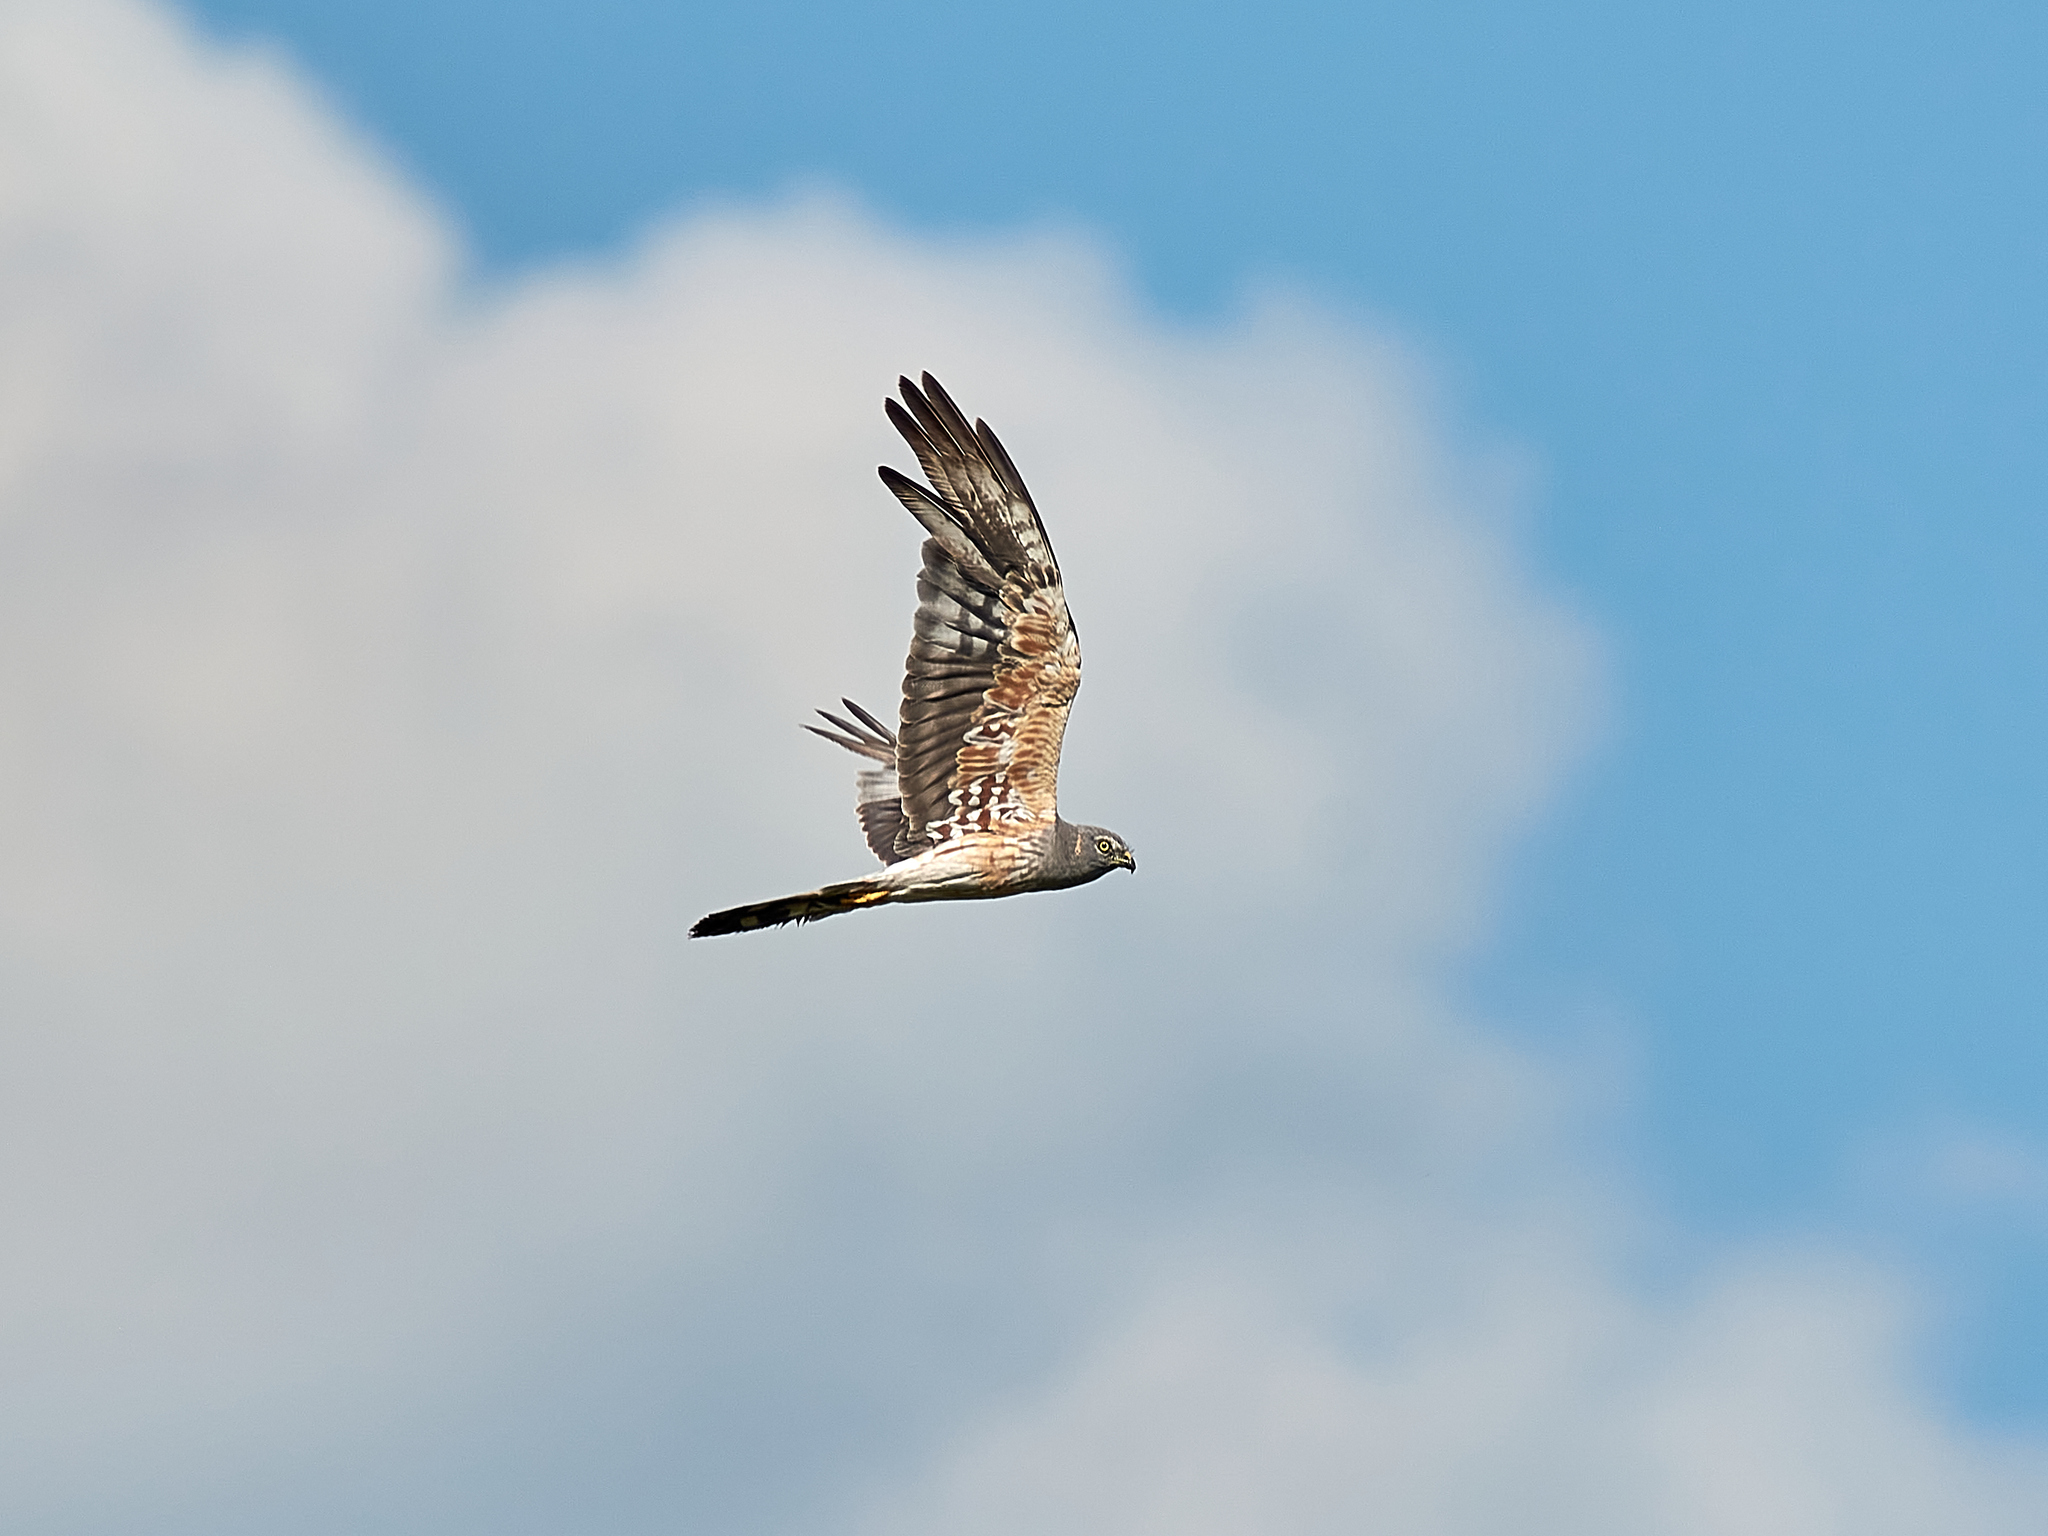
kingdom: Animalia
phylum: Chordata
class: Aves
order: Accipitriformes
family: Accipitridae
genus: Circus
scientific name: Circus pygargus
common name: Montagu's harrier
